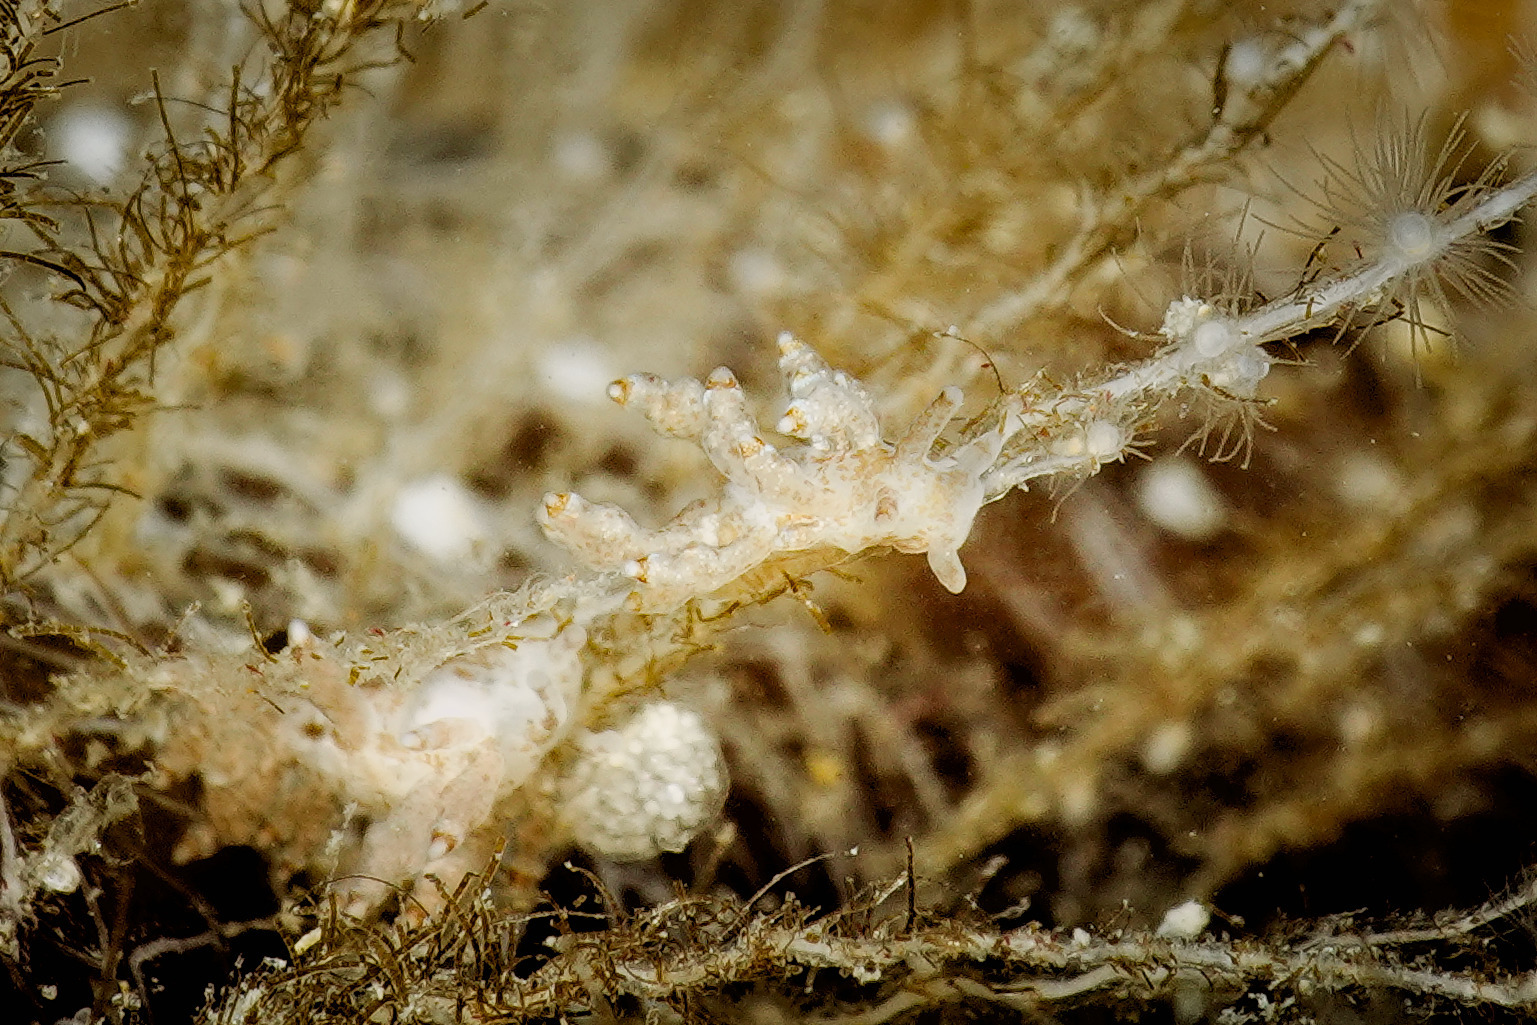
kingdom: Animalia
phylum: Mollusca
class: Gastropoda
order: Nudibranchia
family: Eubranchidae
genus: Eubranchus
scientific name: Eubranchus exiguus
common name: Balloon aeolis
